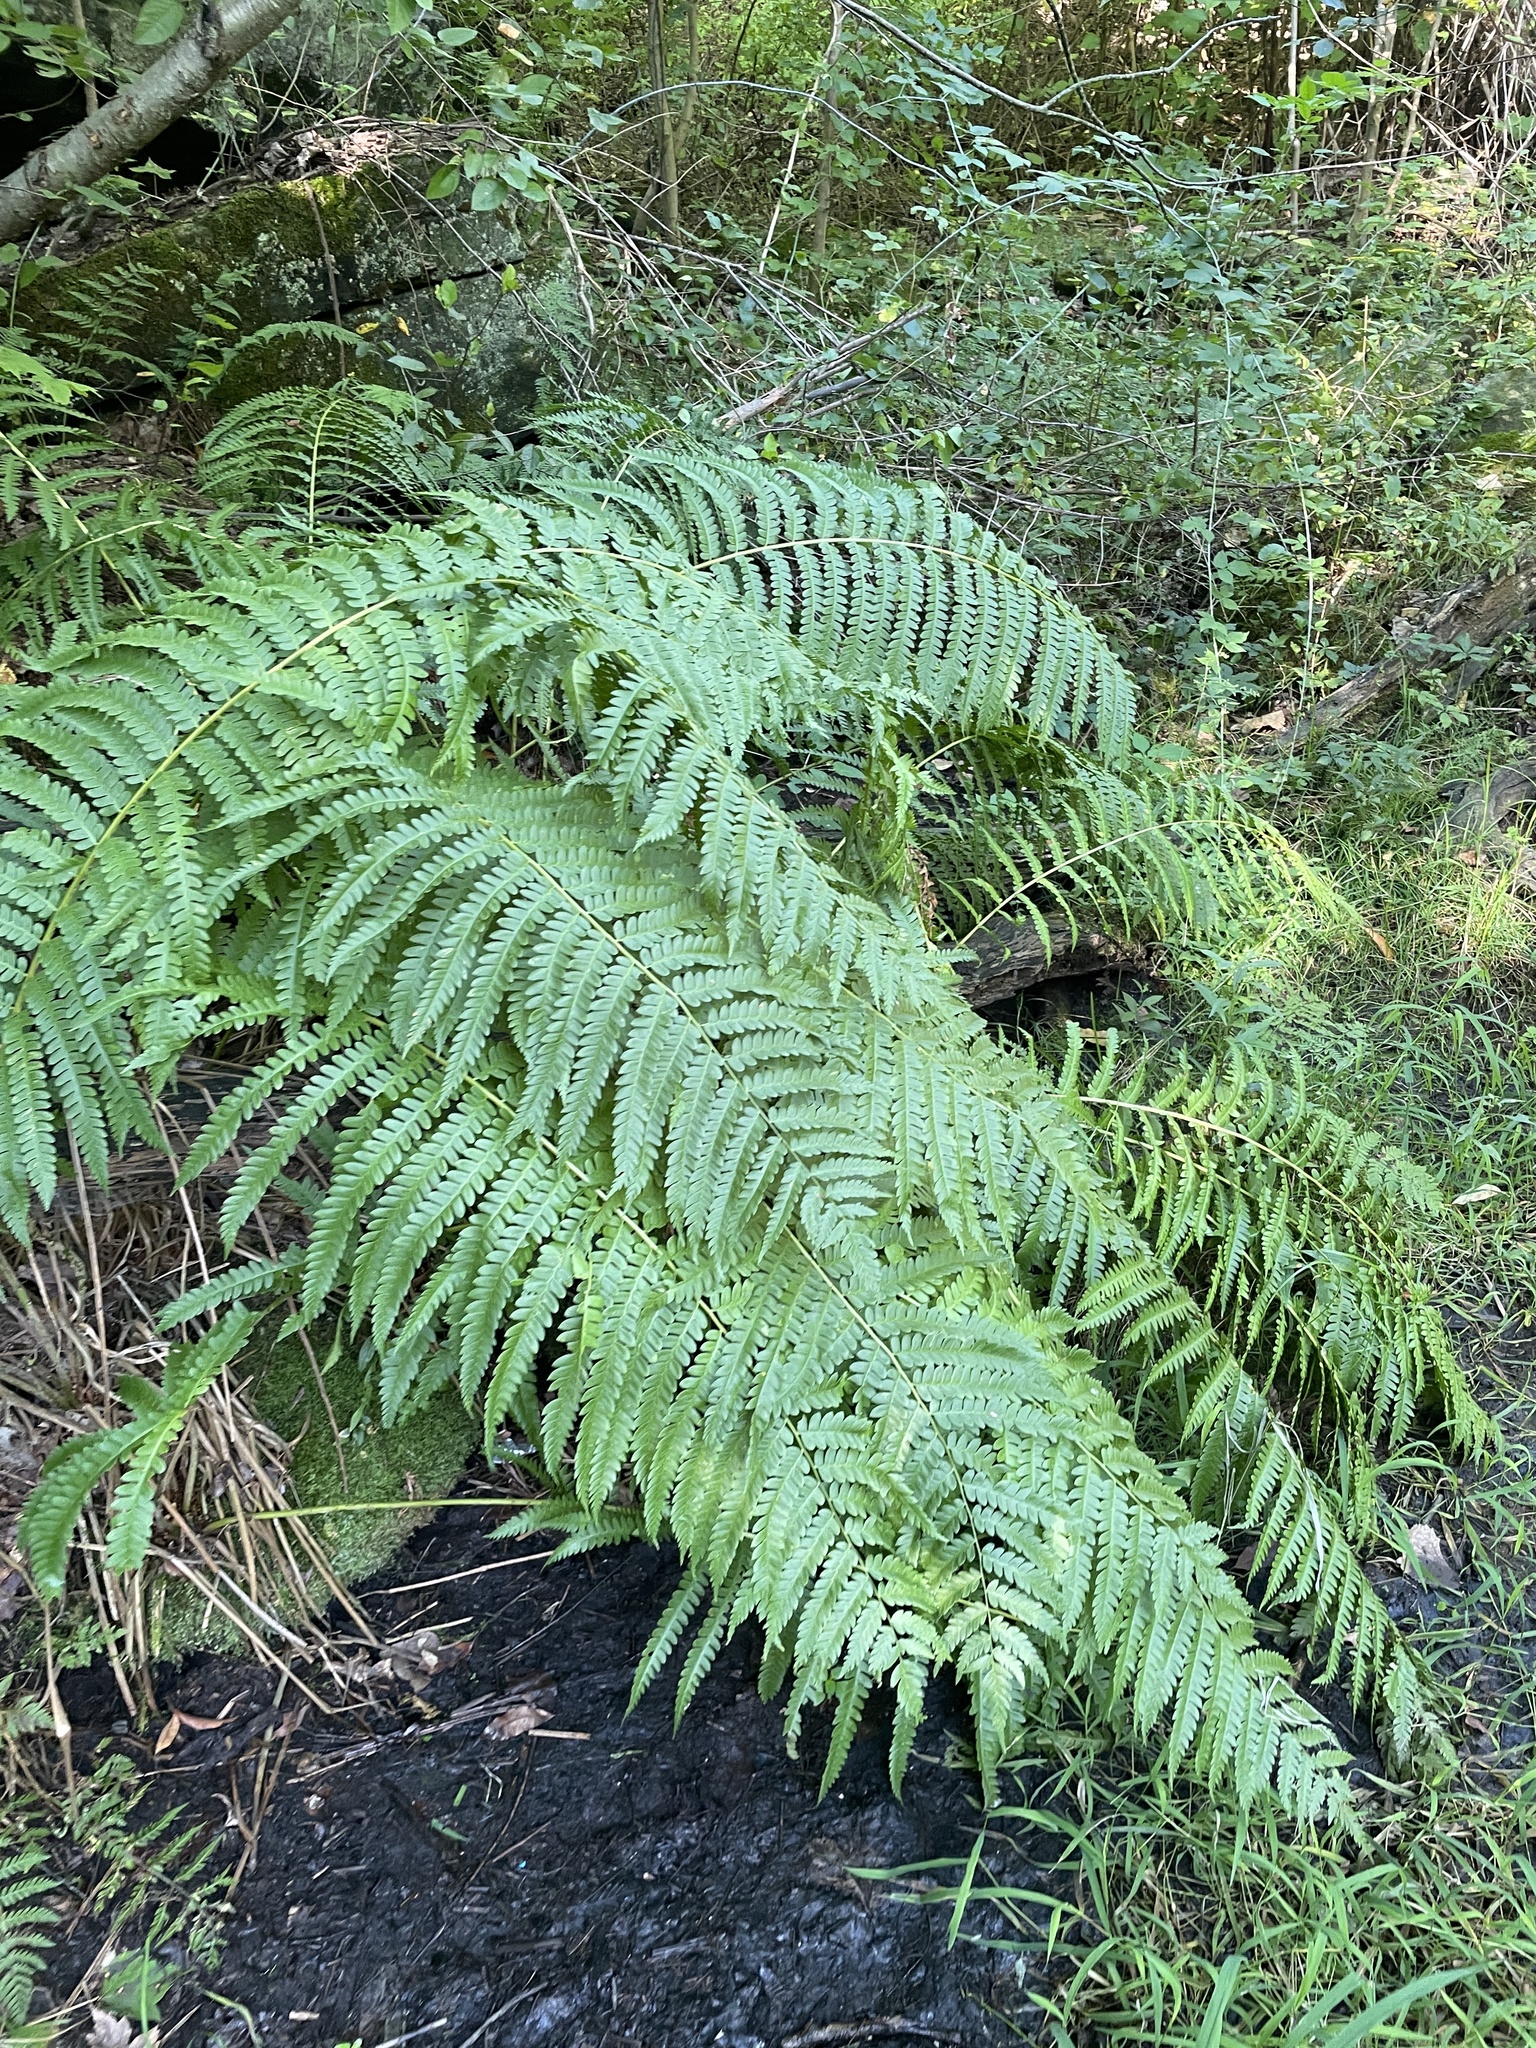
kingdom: Plantae
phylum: Tracheophyta
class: Polypodiopsida
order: Osmundales
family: Osmundaceae
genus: Osmundastrum
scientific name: Osmundastrum cinnamomeum
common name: Cinnamon fern
